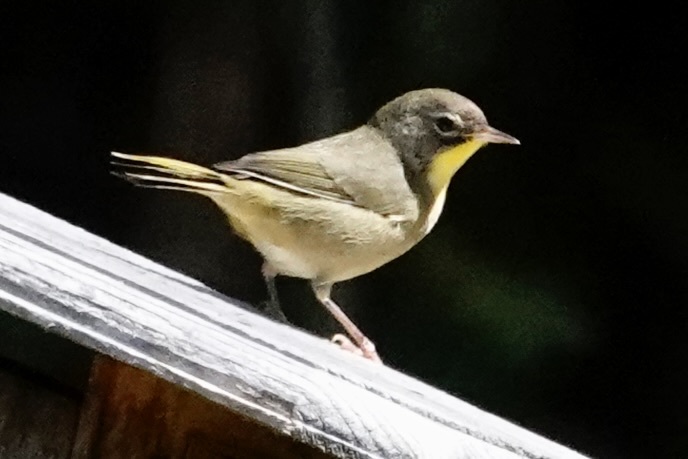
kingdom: Animalia
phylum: Chordata
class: Aves
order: Passeriformes
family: Parulidae
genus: Geothlypis
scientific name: Geothlypis trichas
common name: Common yellowthroat
